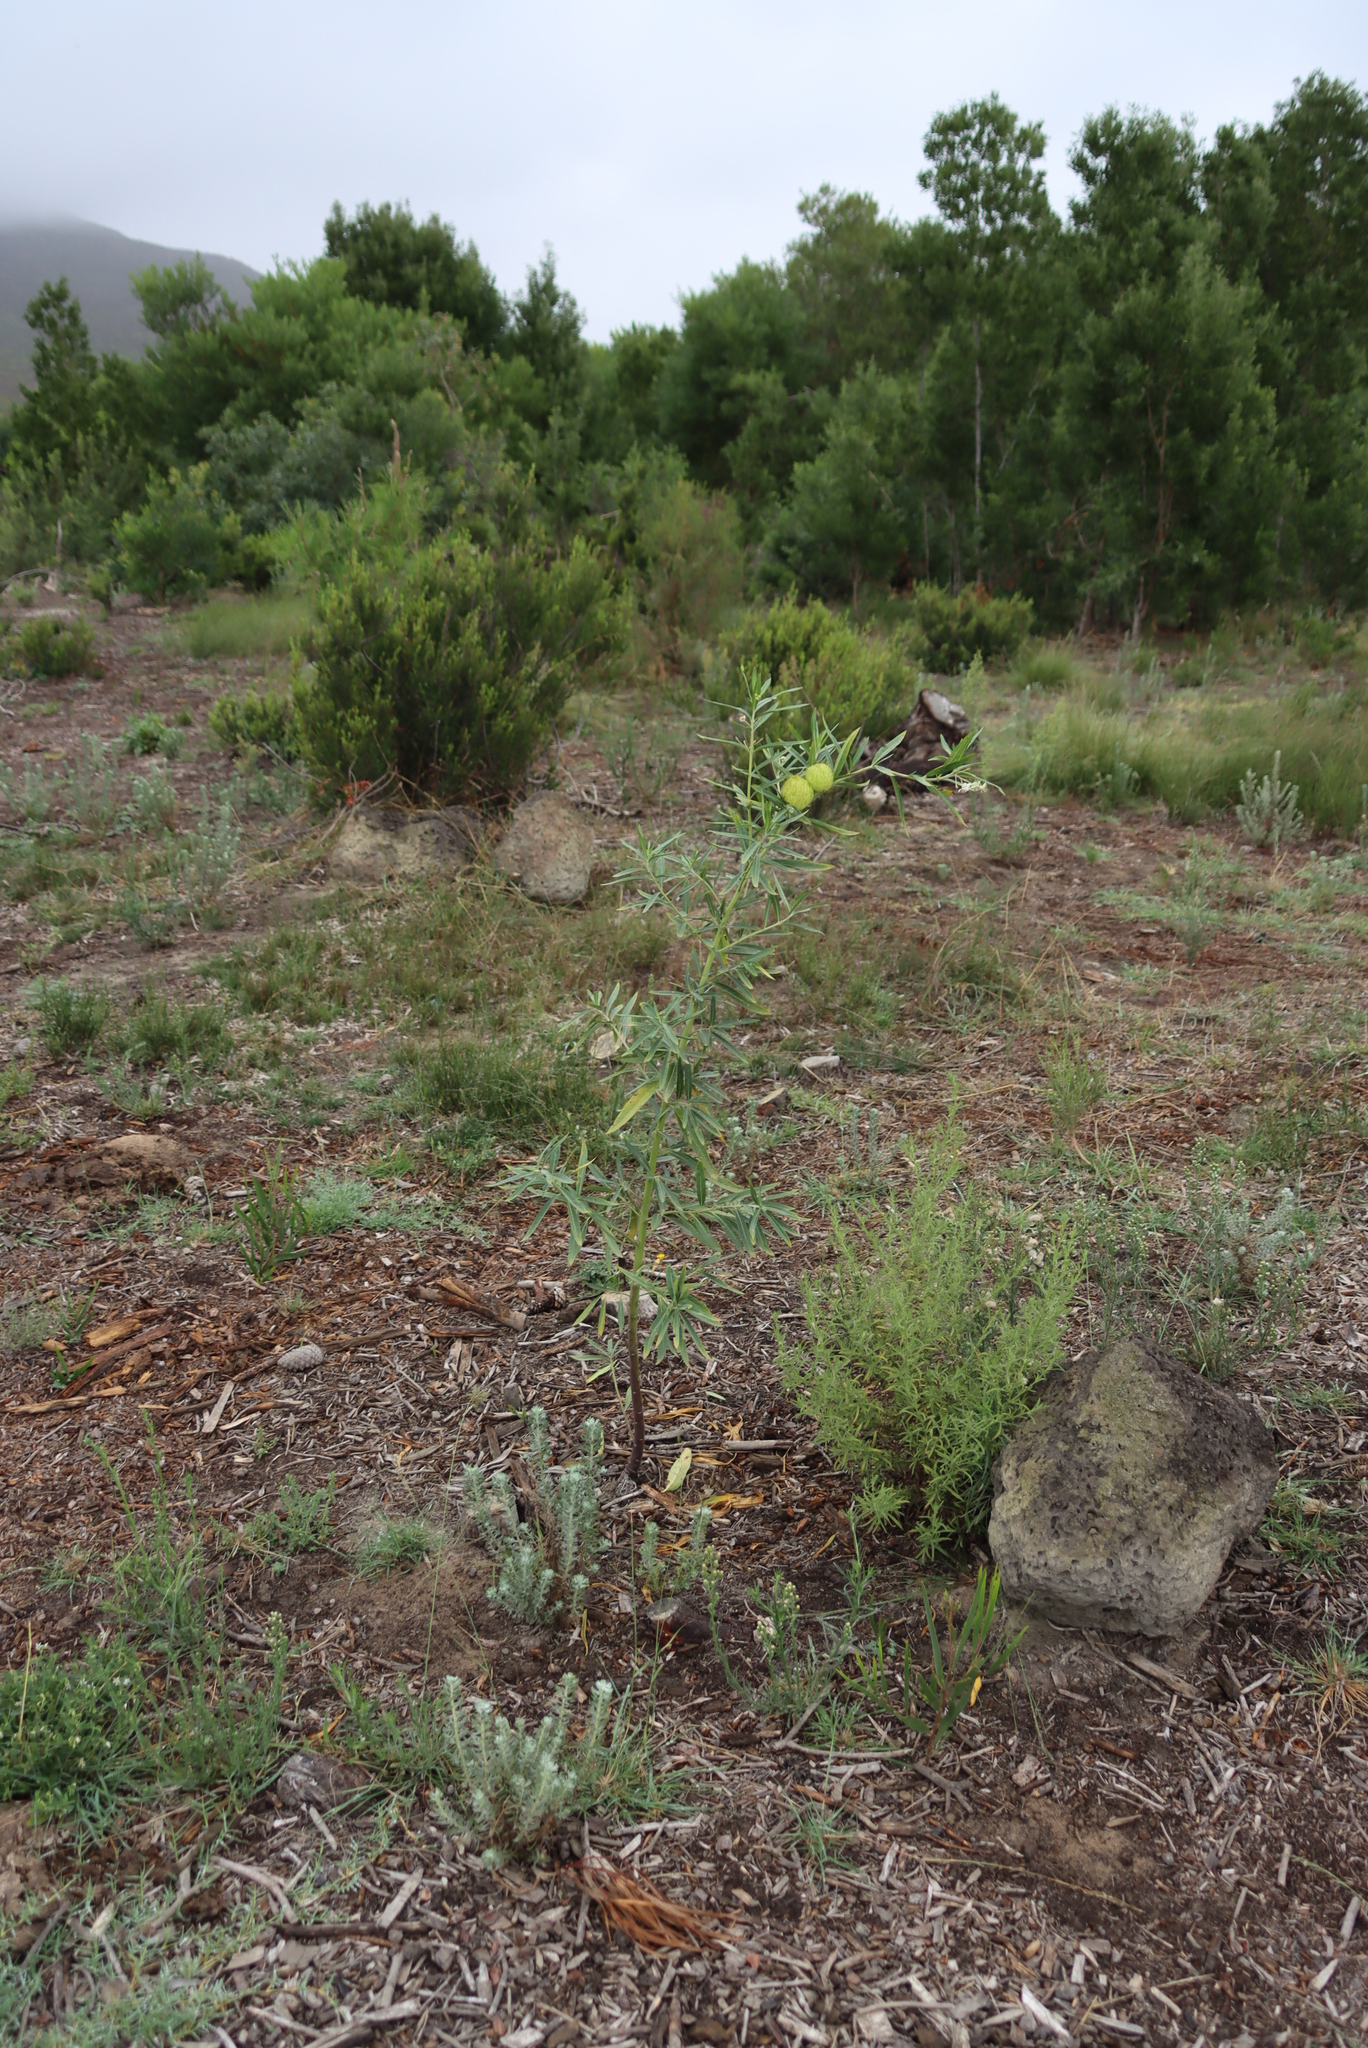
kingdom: Plantae
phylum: Tracheophyta
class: Magnoliopsida
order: Gentianales
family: Apocynaceae
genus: Gomphocarpus
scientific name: Gomphocarpus physocarpus
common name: Balloon cotton bush
